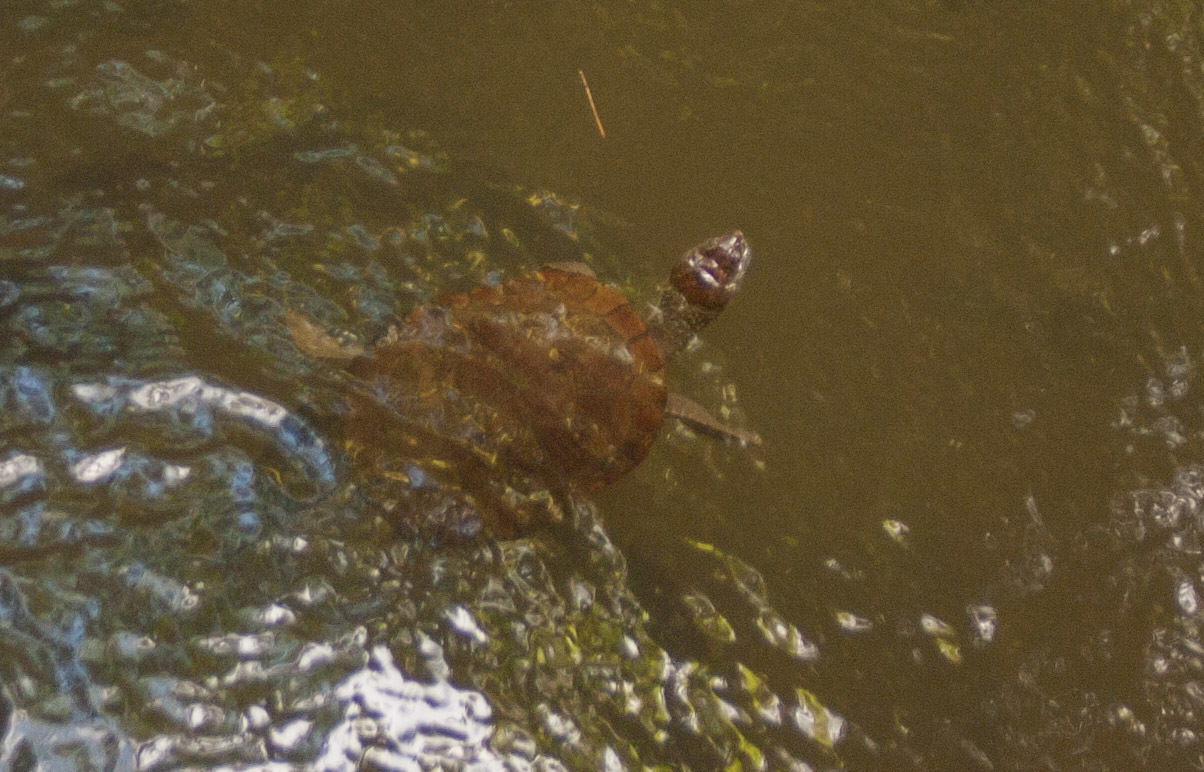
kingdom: Animalia
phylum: Chordata
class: Testudines
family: Chelidae
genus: Myuchelys
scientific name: Myuchelys latisternum
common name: Serrated snapping turtle
